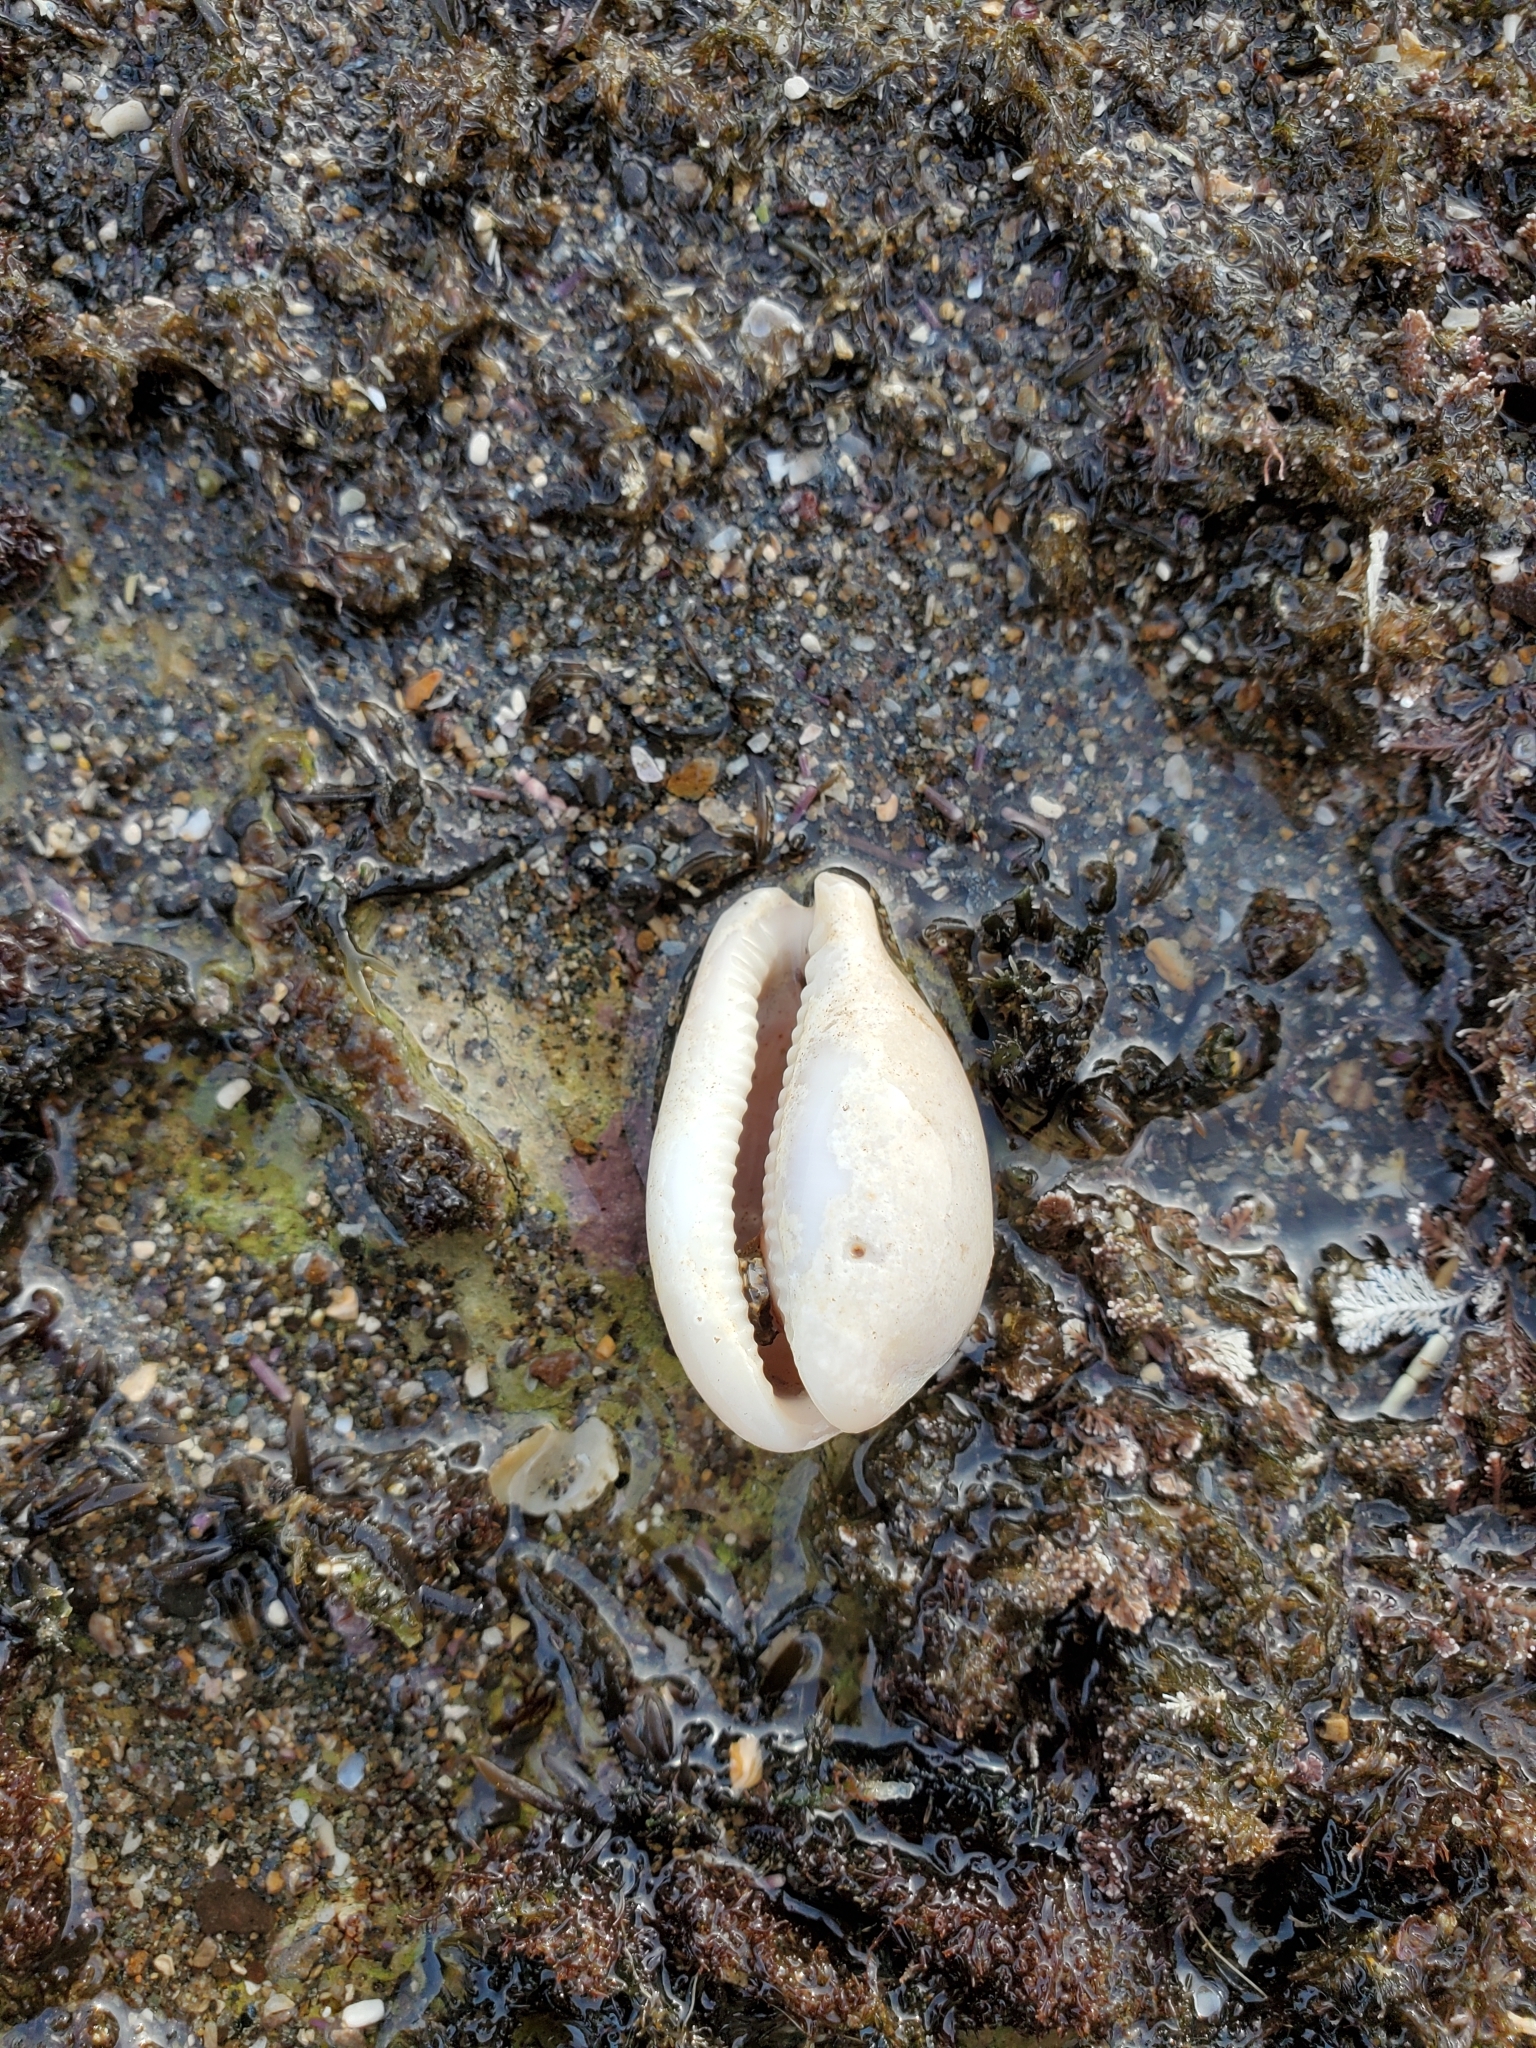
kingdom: Animalia
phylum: Mollusca
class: Gastropoda
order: Littorinimorpha
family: Cypraeidae
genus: Neobernaya
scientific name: Neobernaya spadicea
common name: Chestnut cowrie
